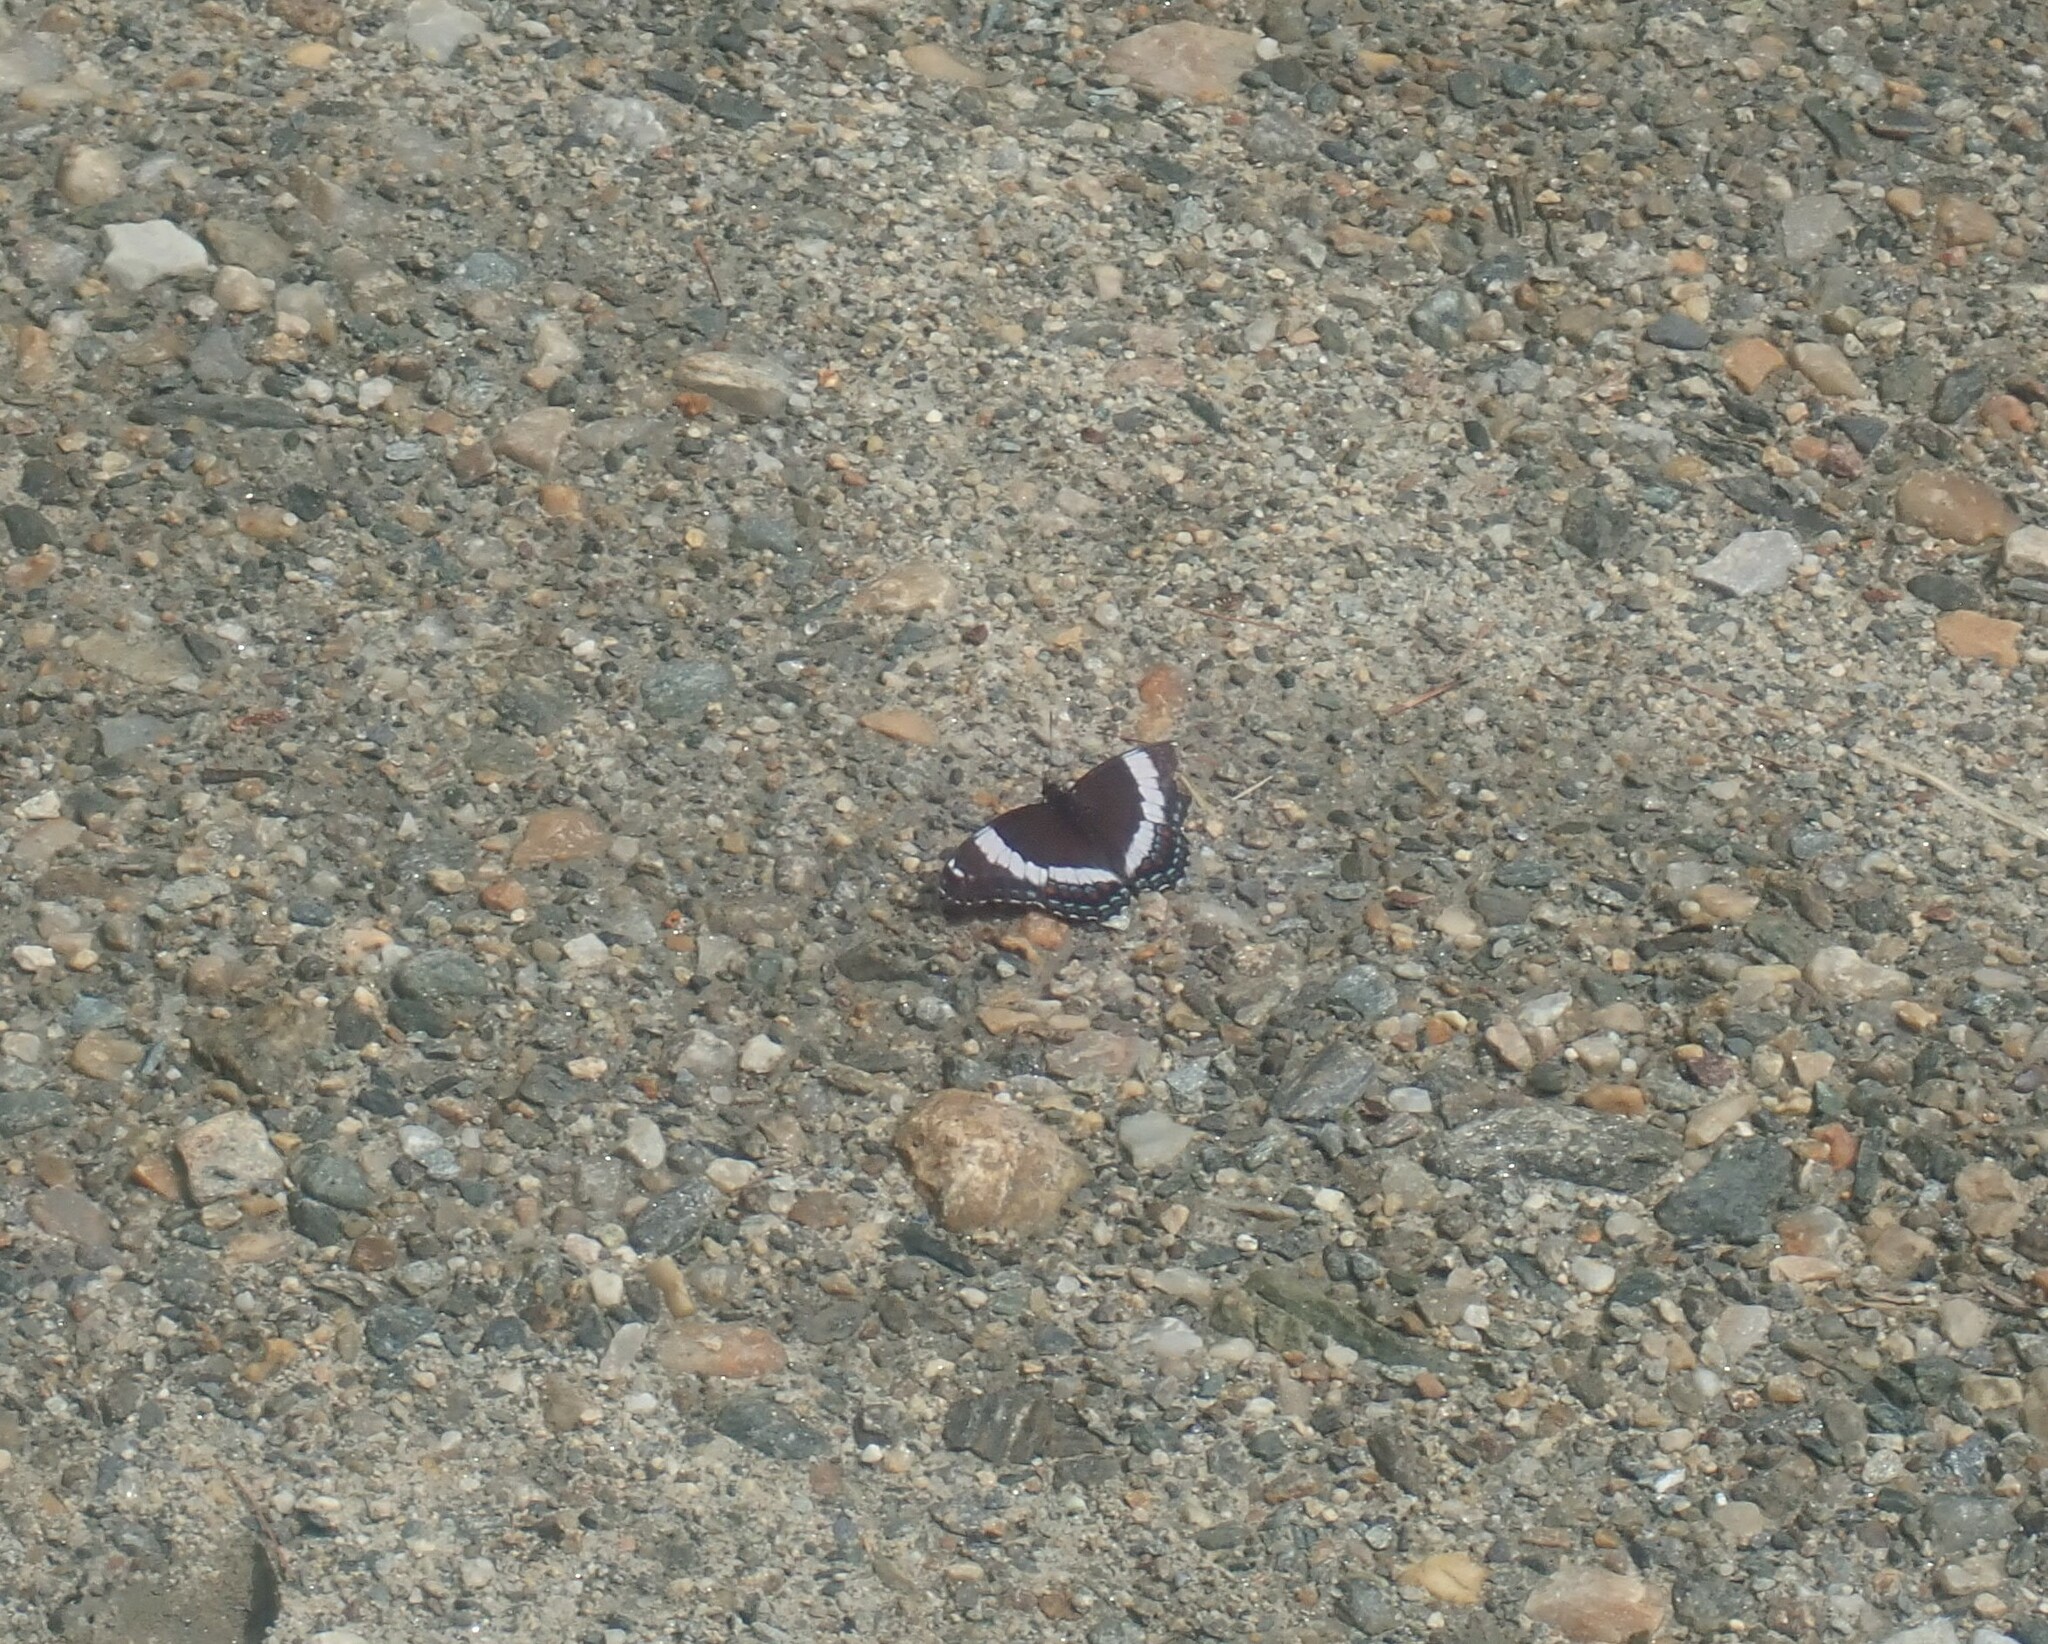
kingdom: Animalia
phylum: Arthropoda
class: Insecta
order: Lepidoptera
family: Nymphalidae
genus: Limenitis
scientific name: Limenitis arthemis
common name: Red-spotted admiral
